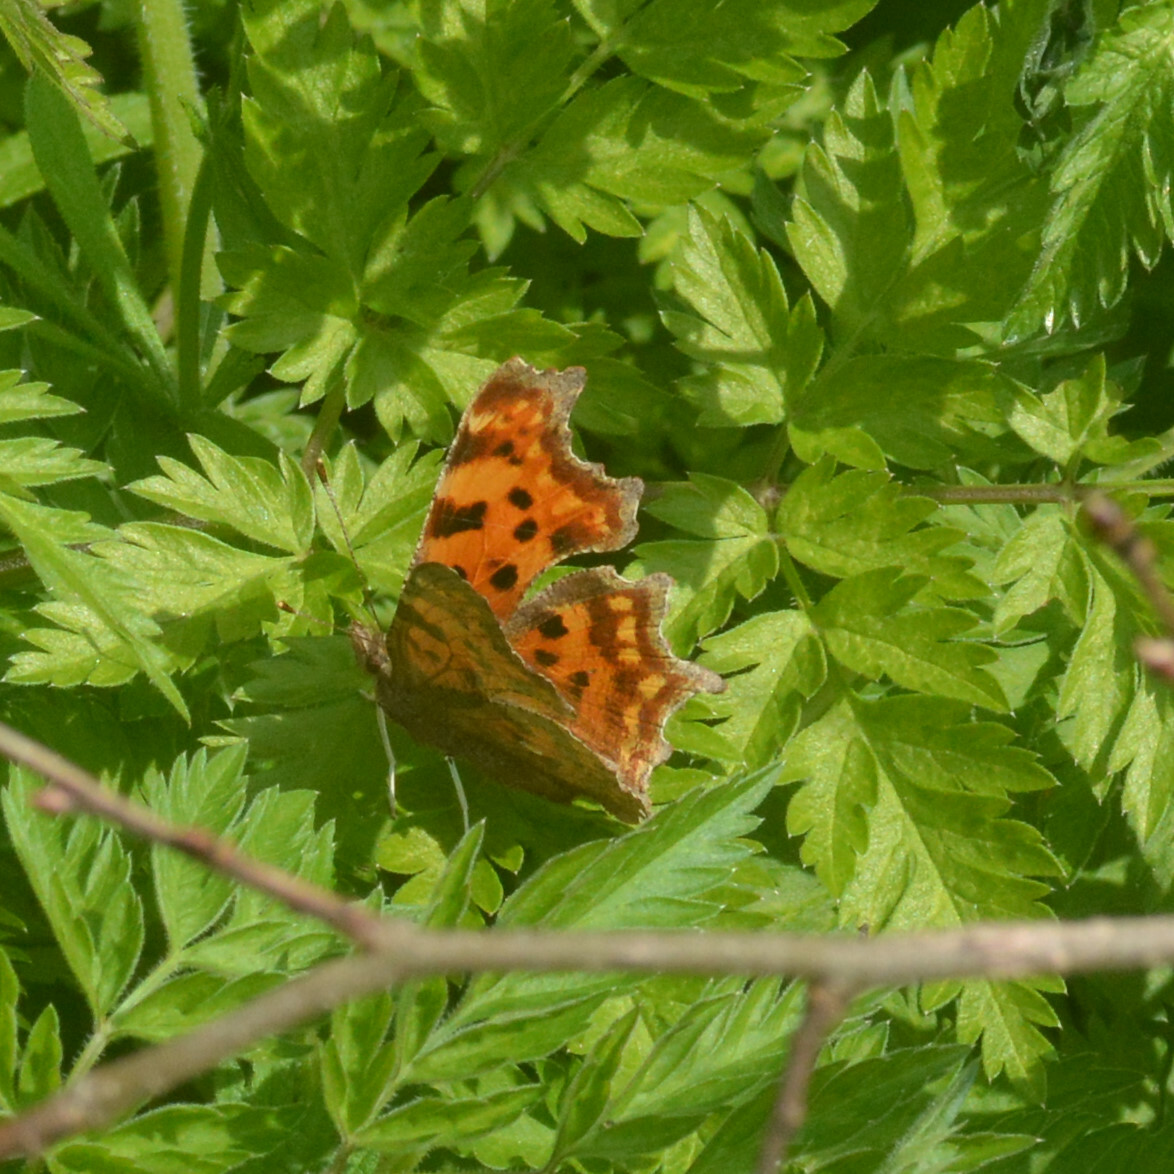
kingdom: Animalia
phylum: Arthropoda
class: Insecta
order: Lepidoptera
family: Nymphalidae
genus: Polygonia
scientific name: Polygonia c-album
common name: Comma
